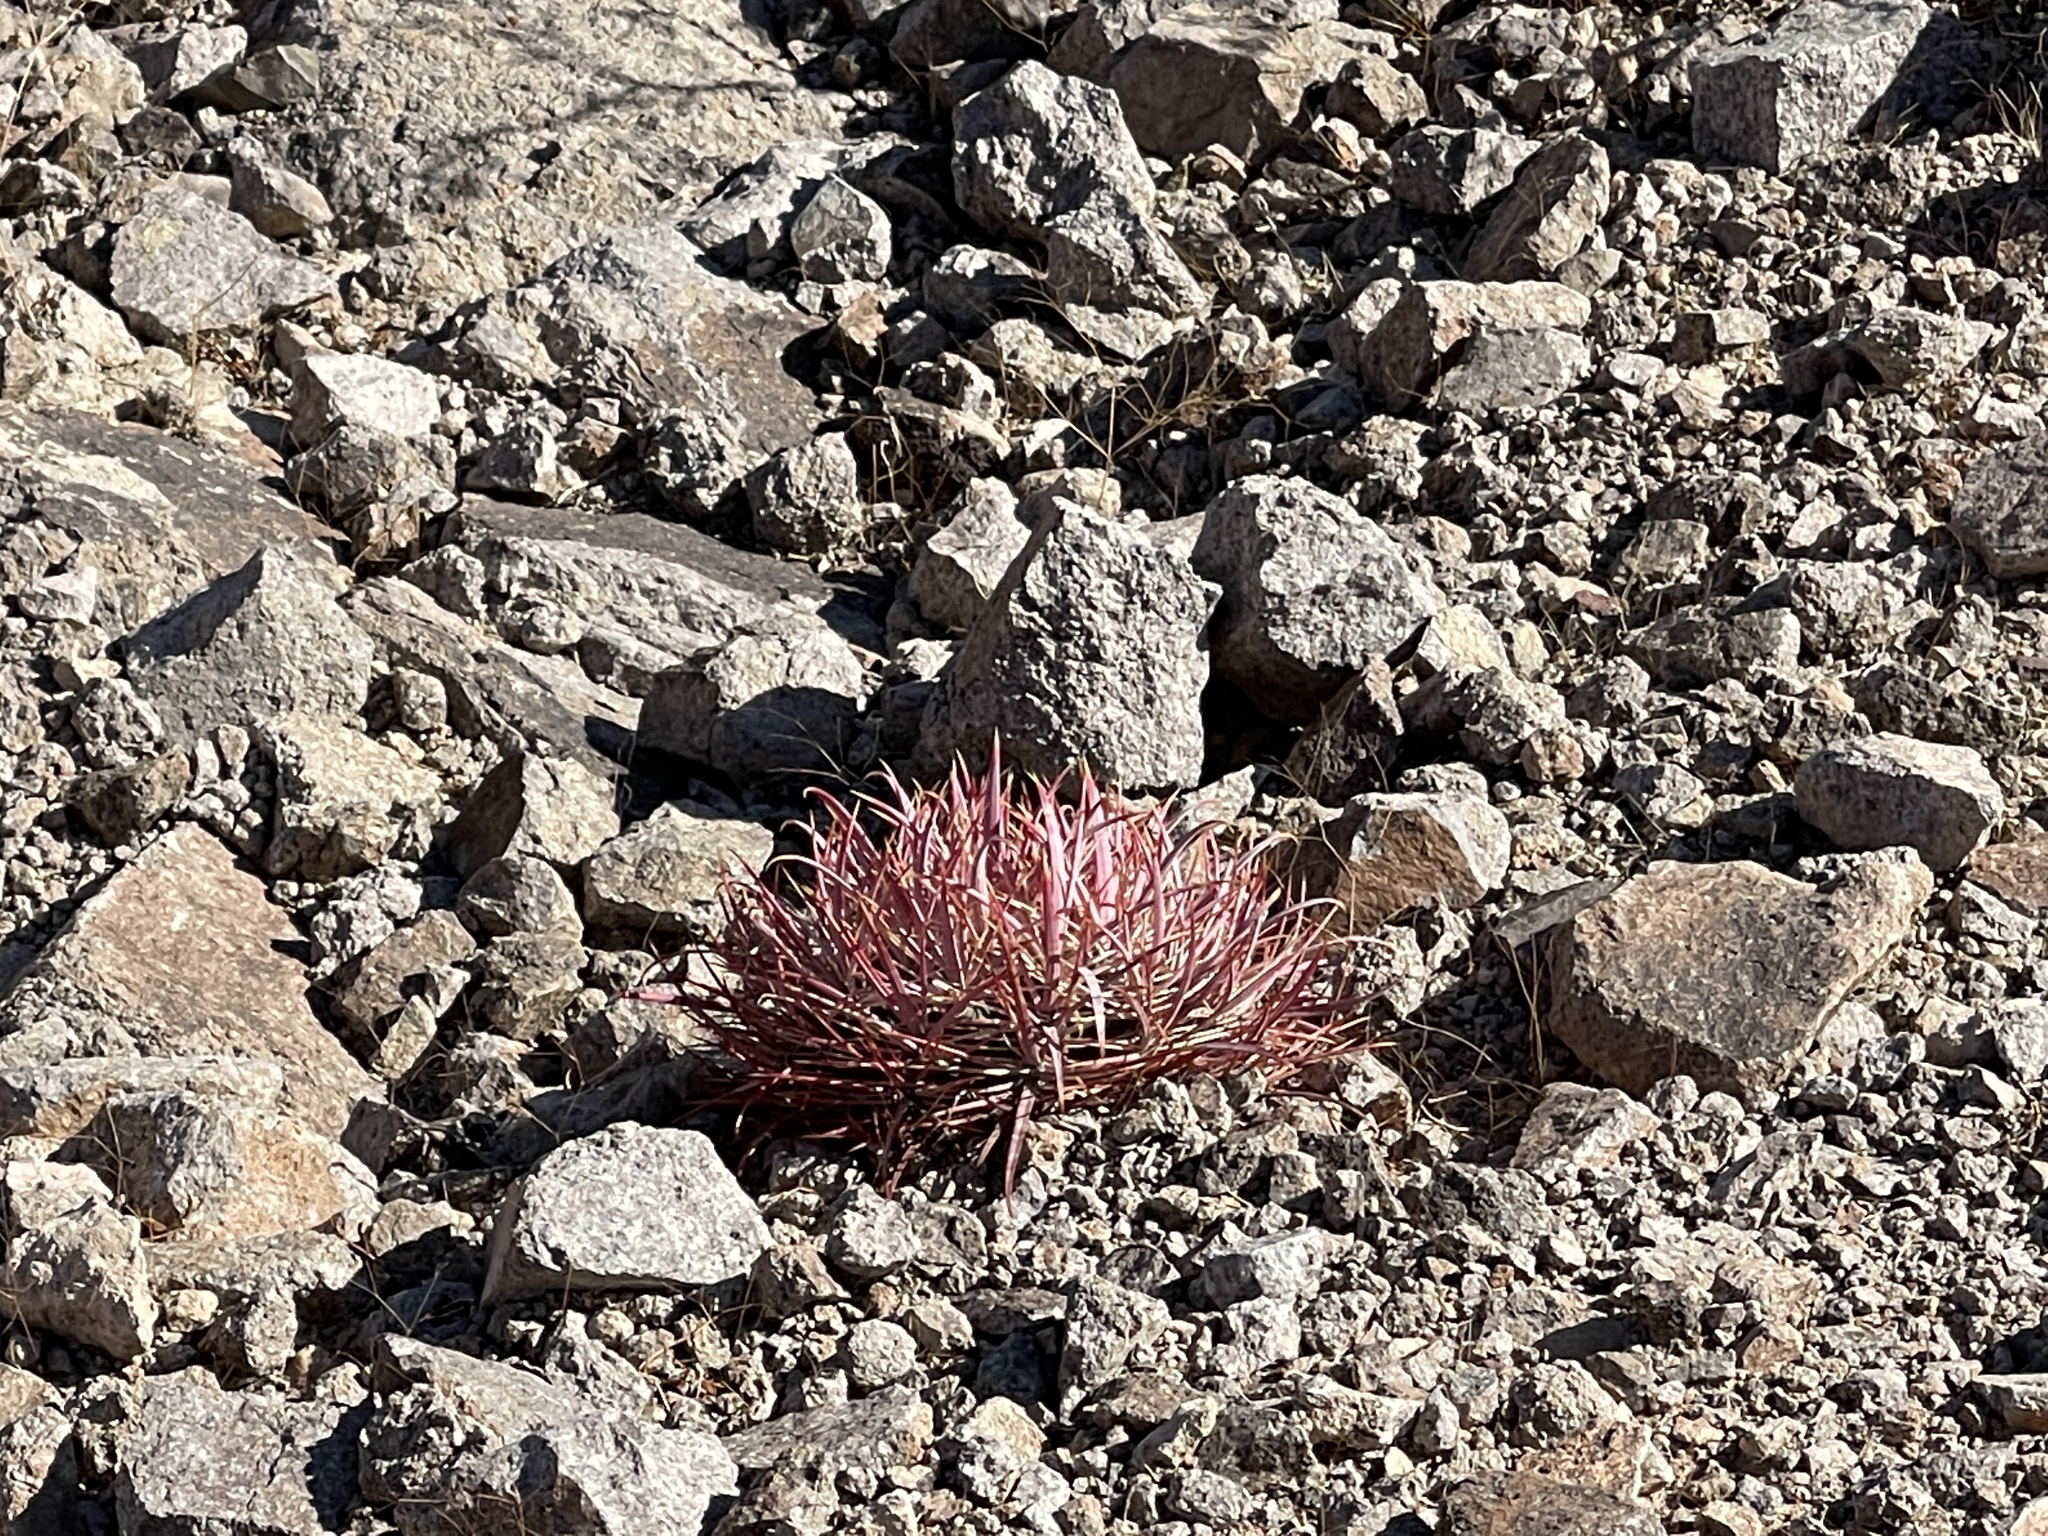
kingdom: Plantae
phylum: Tracheophyta
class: Magnoliopsida
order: Caryophyllales
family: Cactaceae
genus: Ferocactus
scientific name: Ferocactus cylindraceus
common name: California barrel cactus
